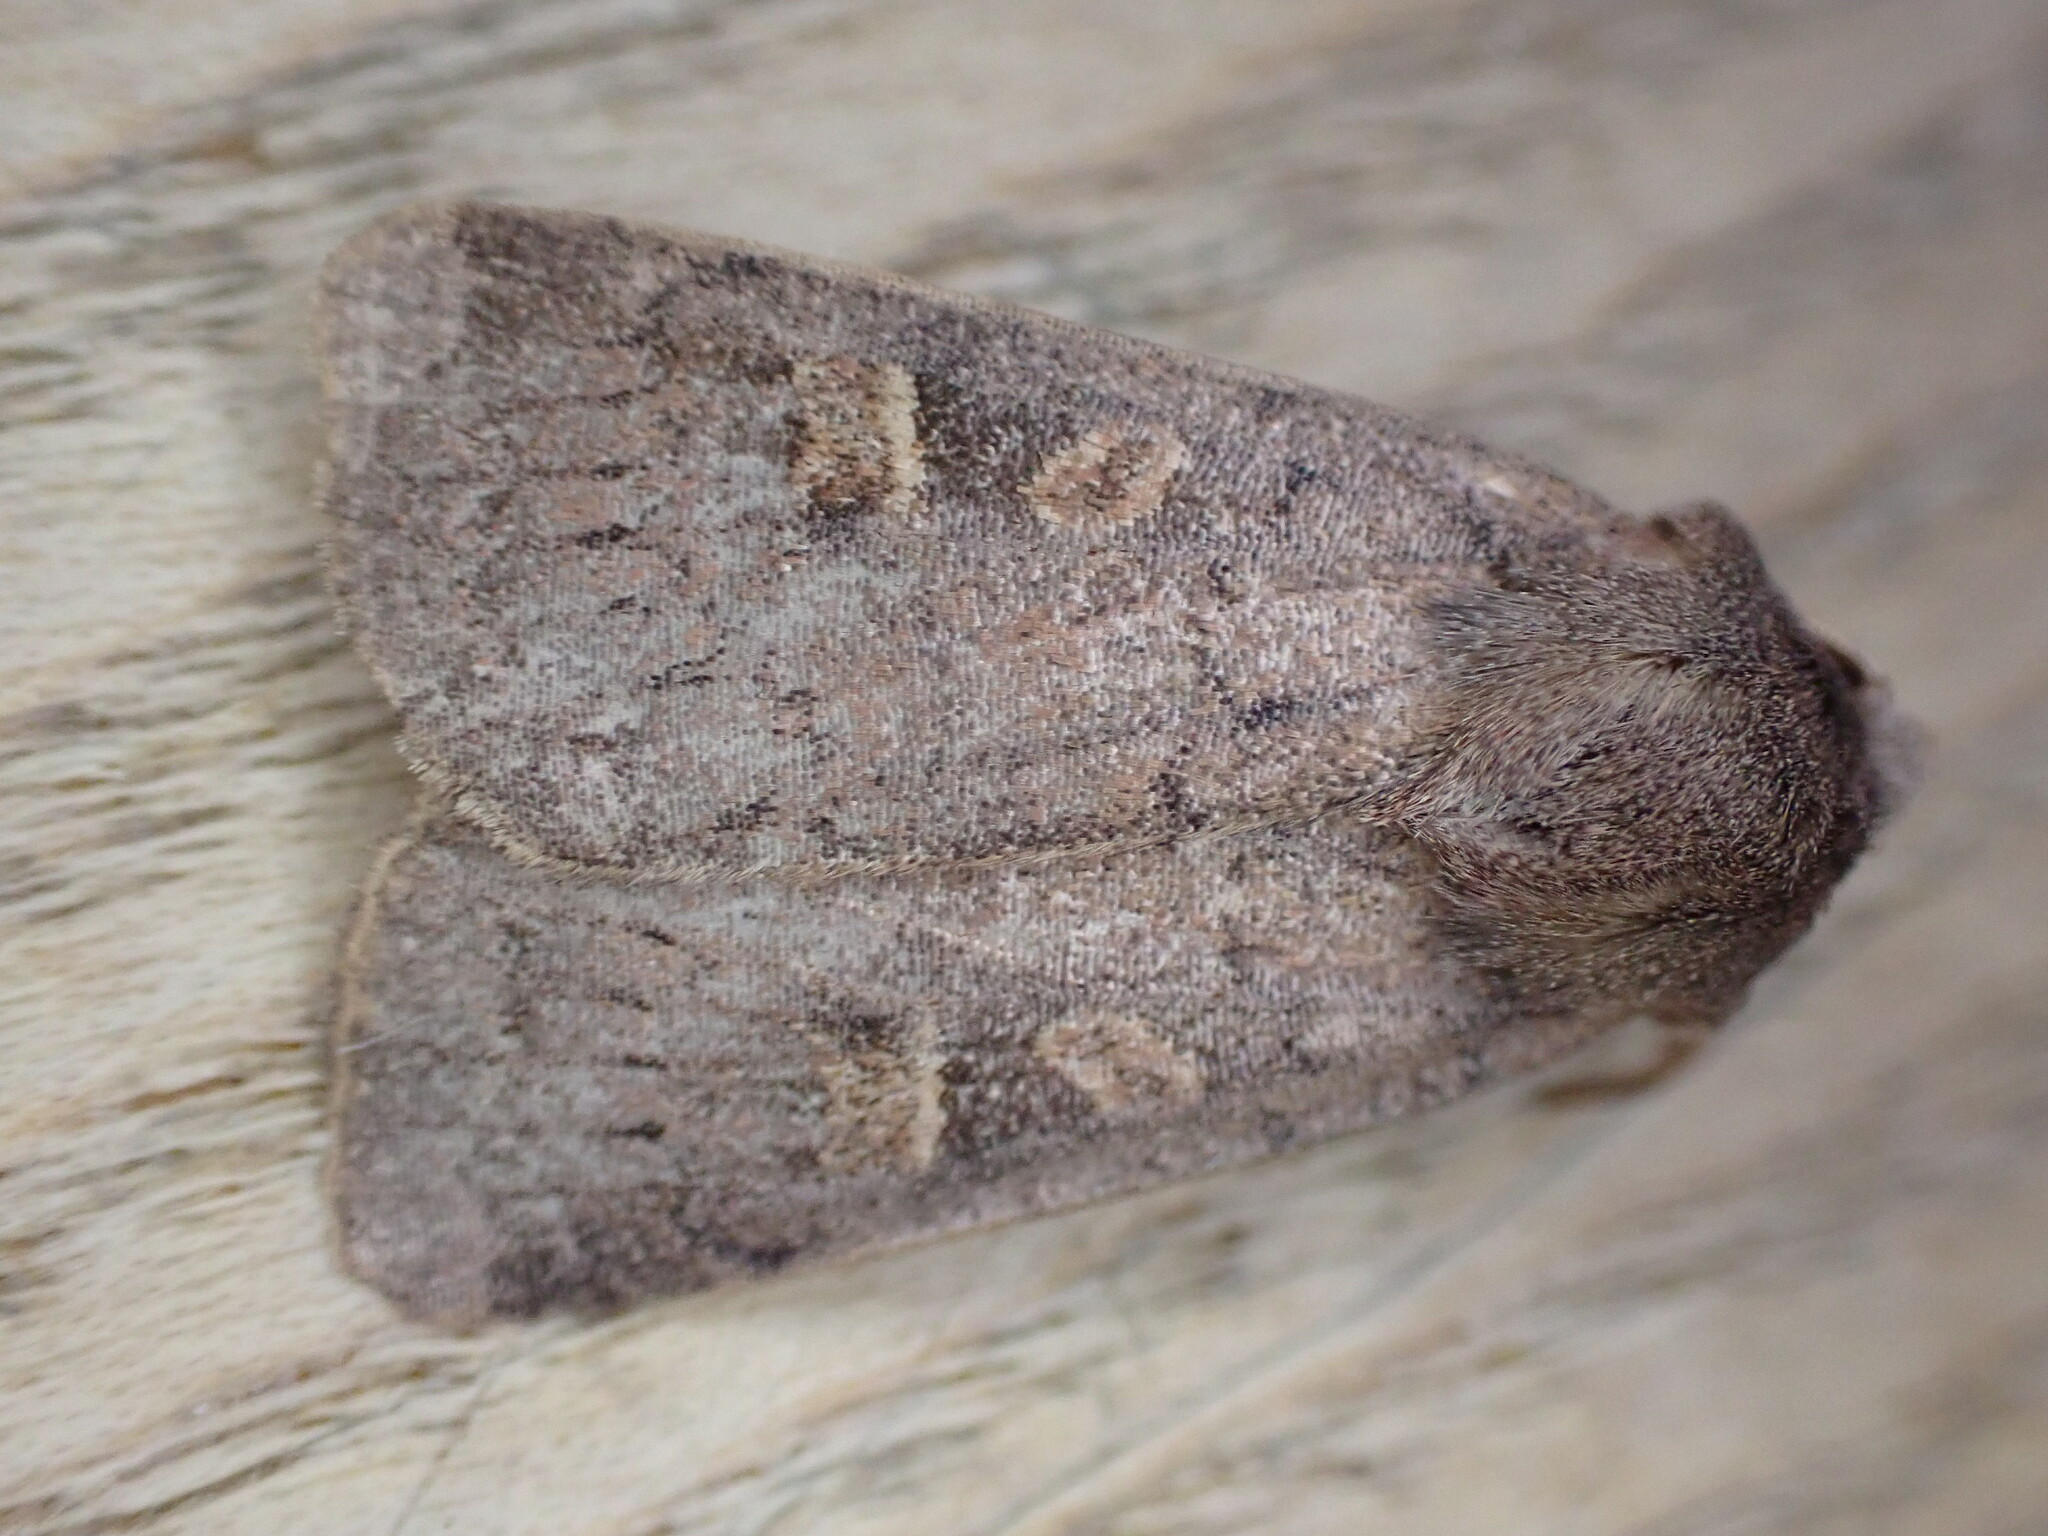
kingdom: Animalia
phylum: Arthropoda
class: Insecta
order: Lepidoptera
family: Noctuidae
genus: Xestia
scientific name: Xestia xanthographa
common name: Square-spot rustic
